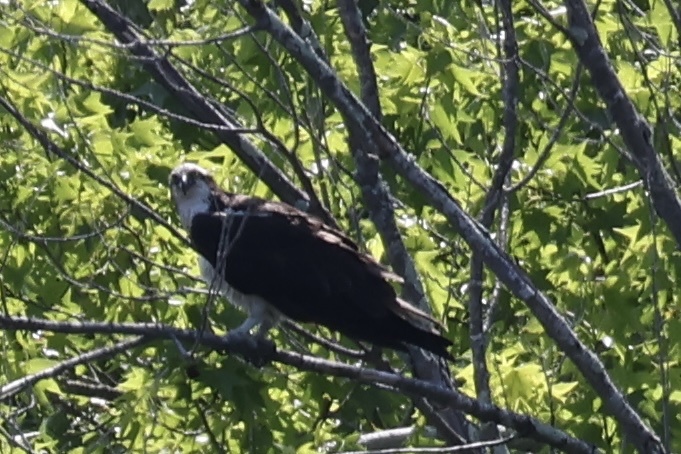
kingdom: Animalia
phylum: Chordata
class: Aves
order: Accipitriformes
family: Pandionidae
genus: Pandion
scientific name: Pandion haliaetus
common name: Osprey
